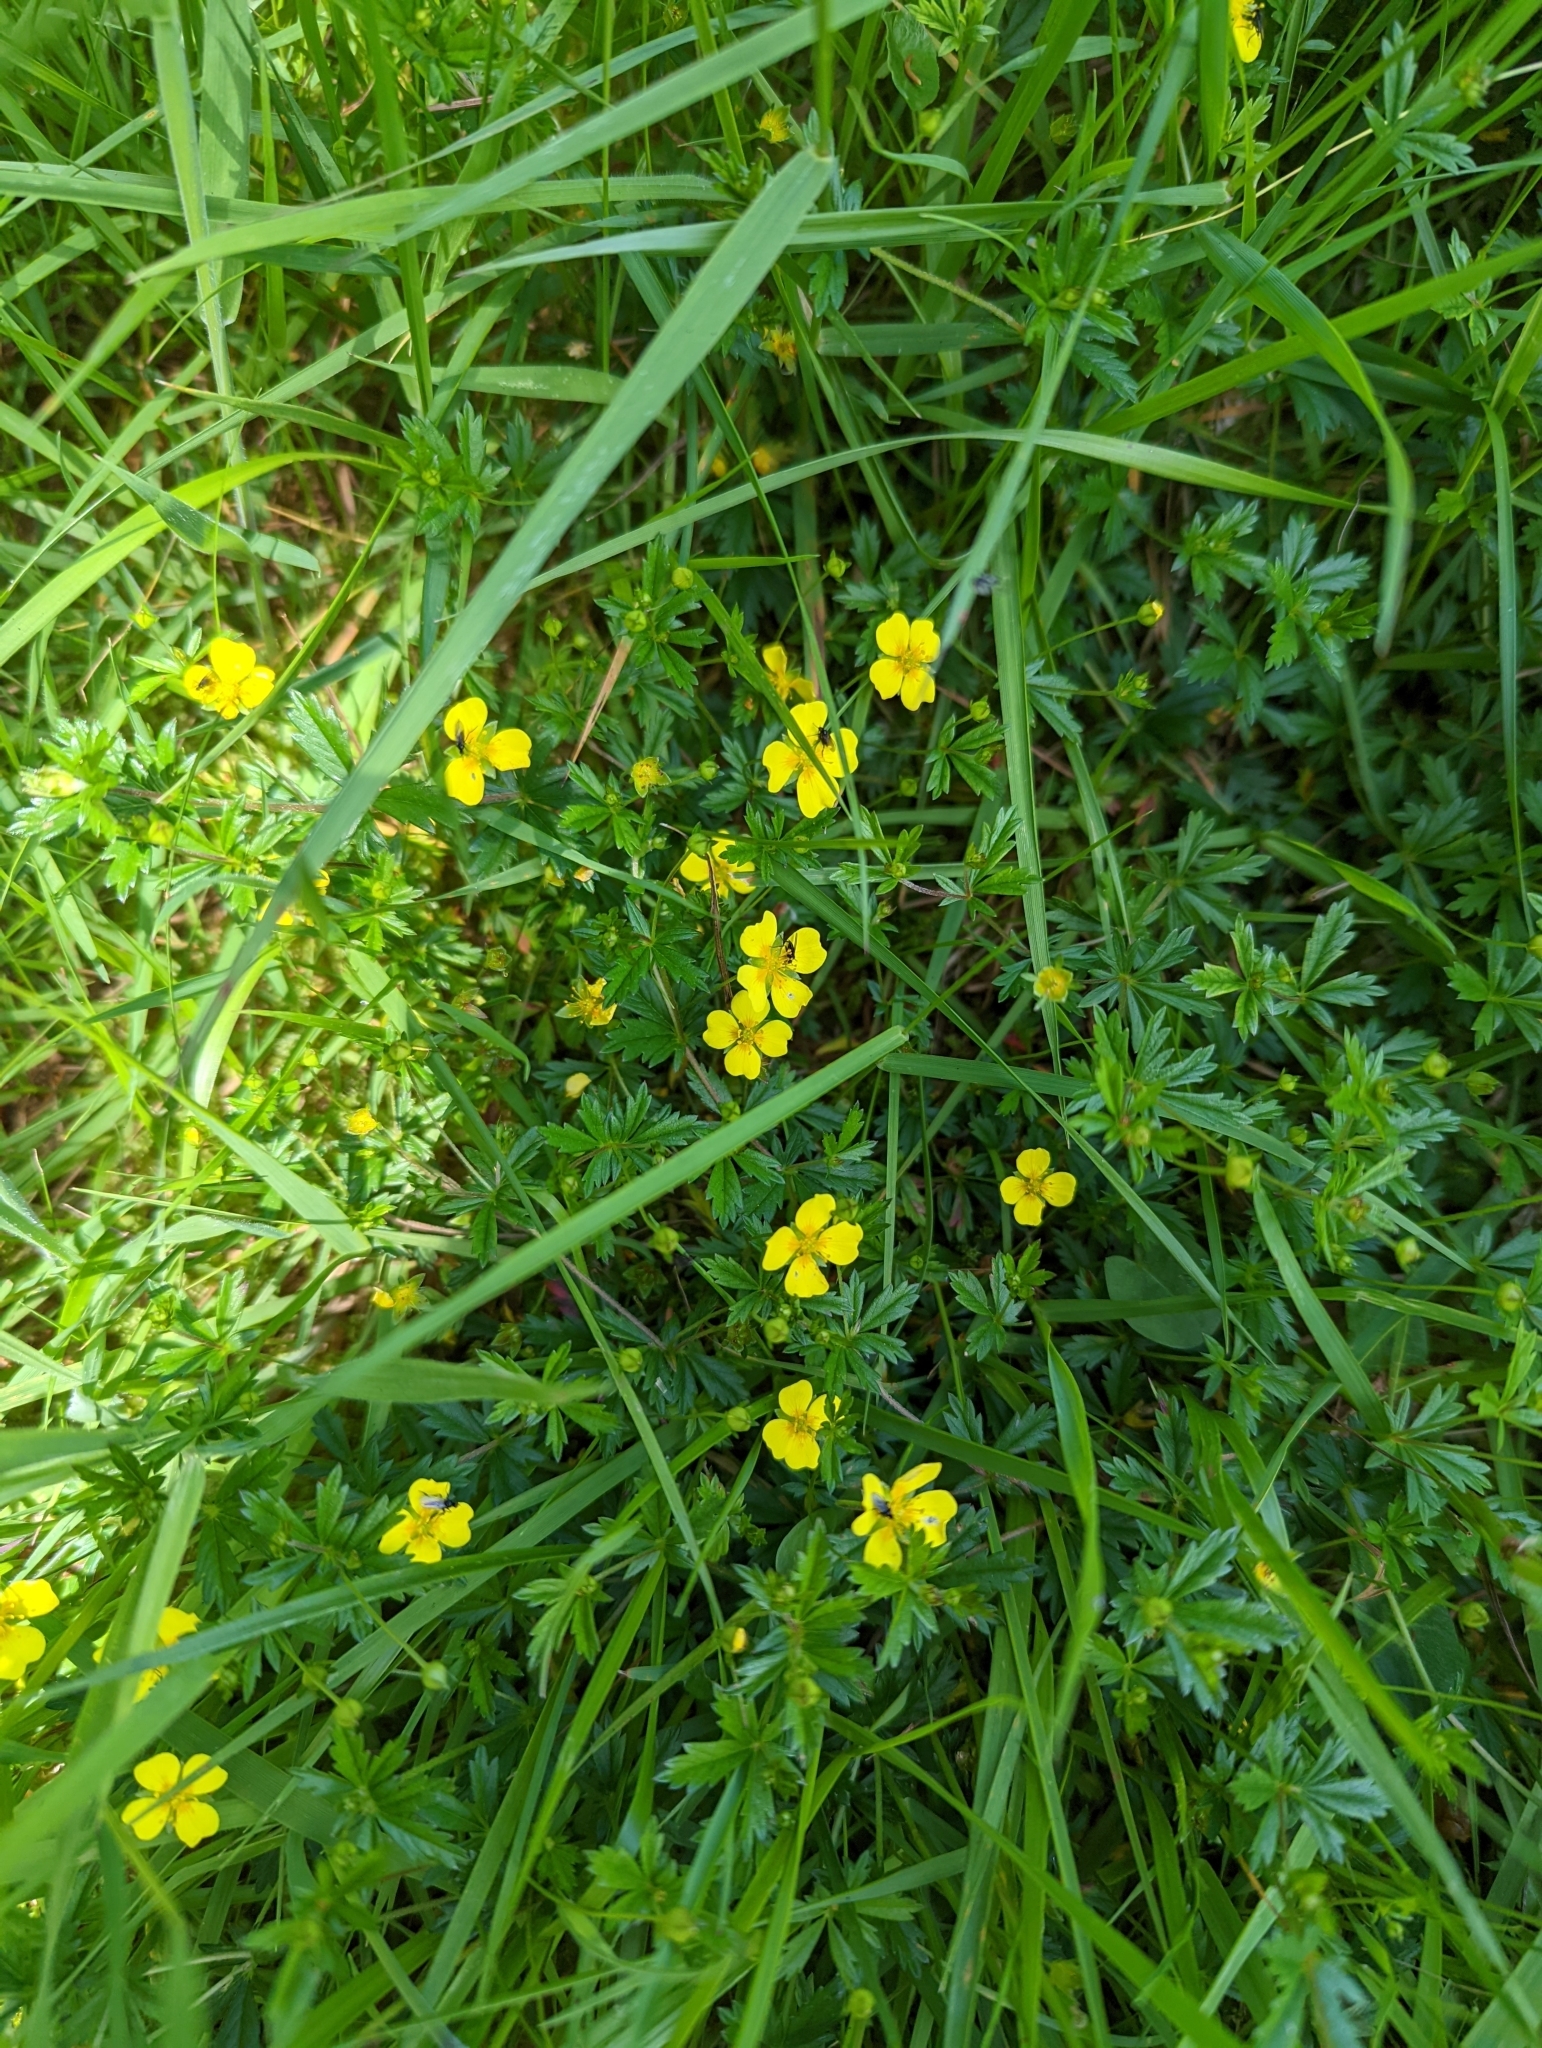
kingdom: Plantae
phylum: Tracheophyta
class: Magnoliopsida
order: Rosales
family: Rosaceae
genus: Potentilla
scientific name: Potentilla erecta
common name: Tormentil
